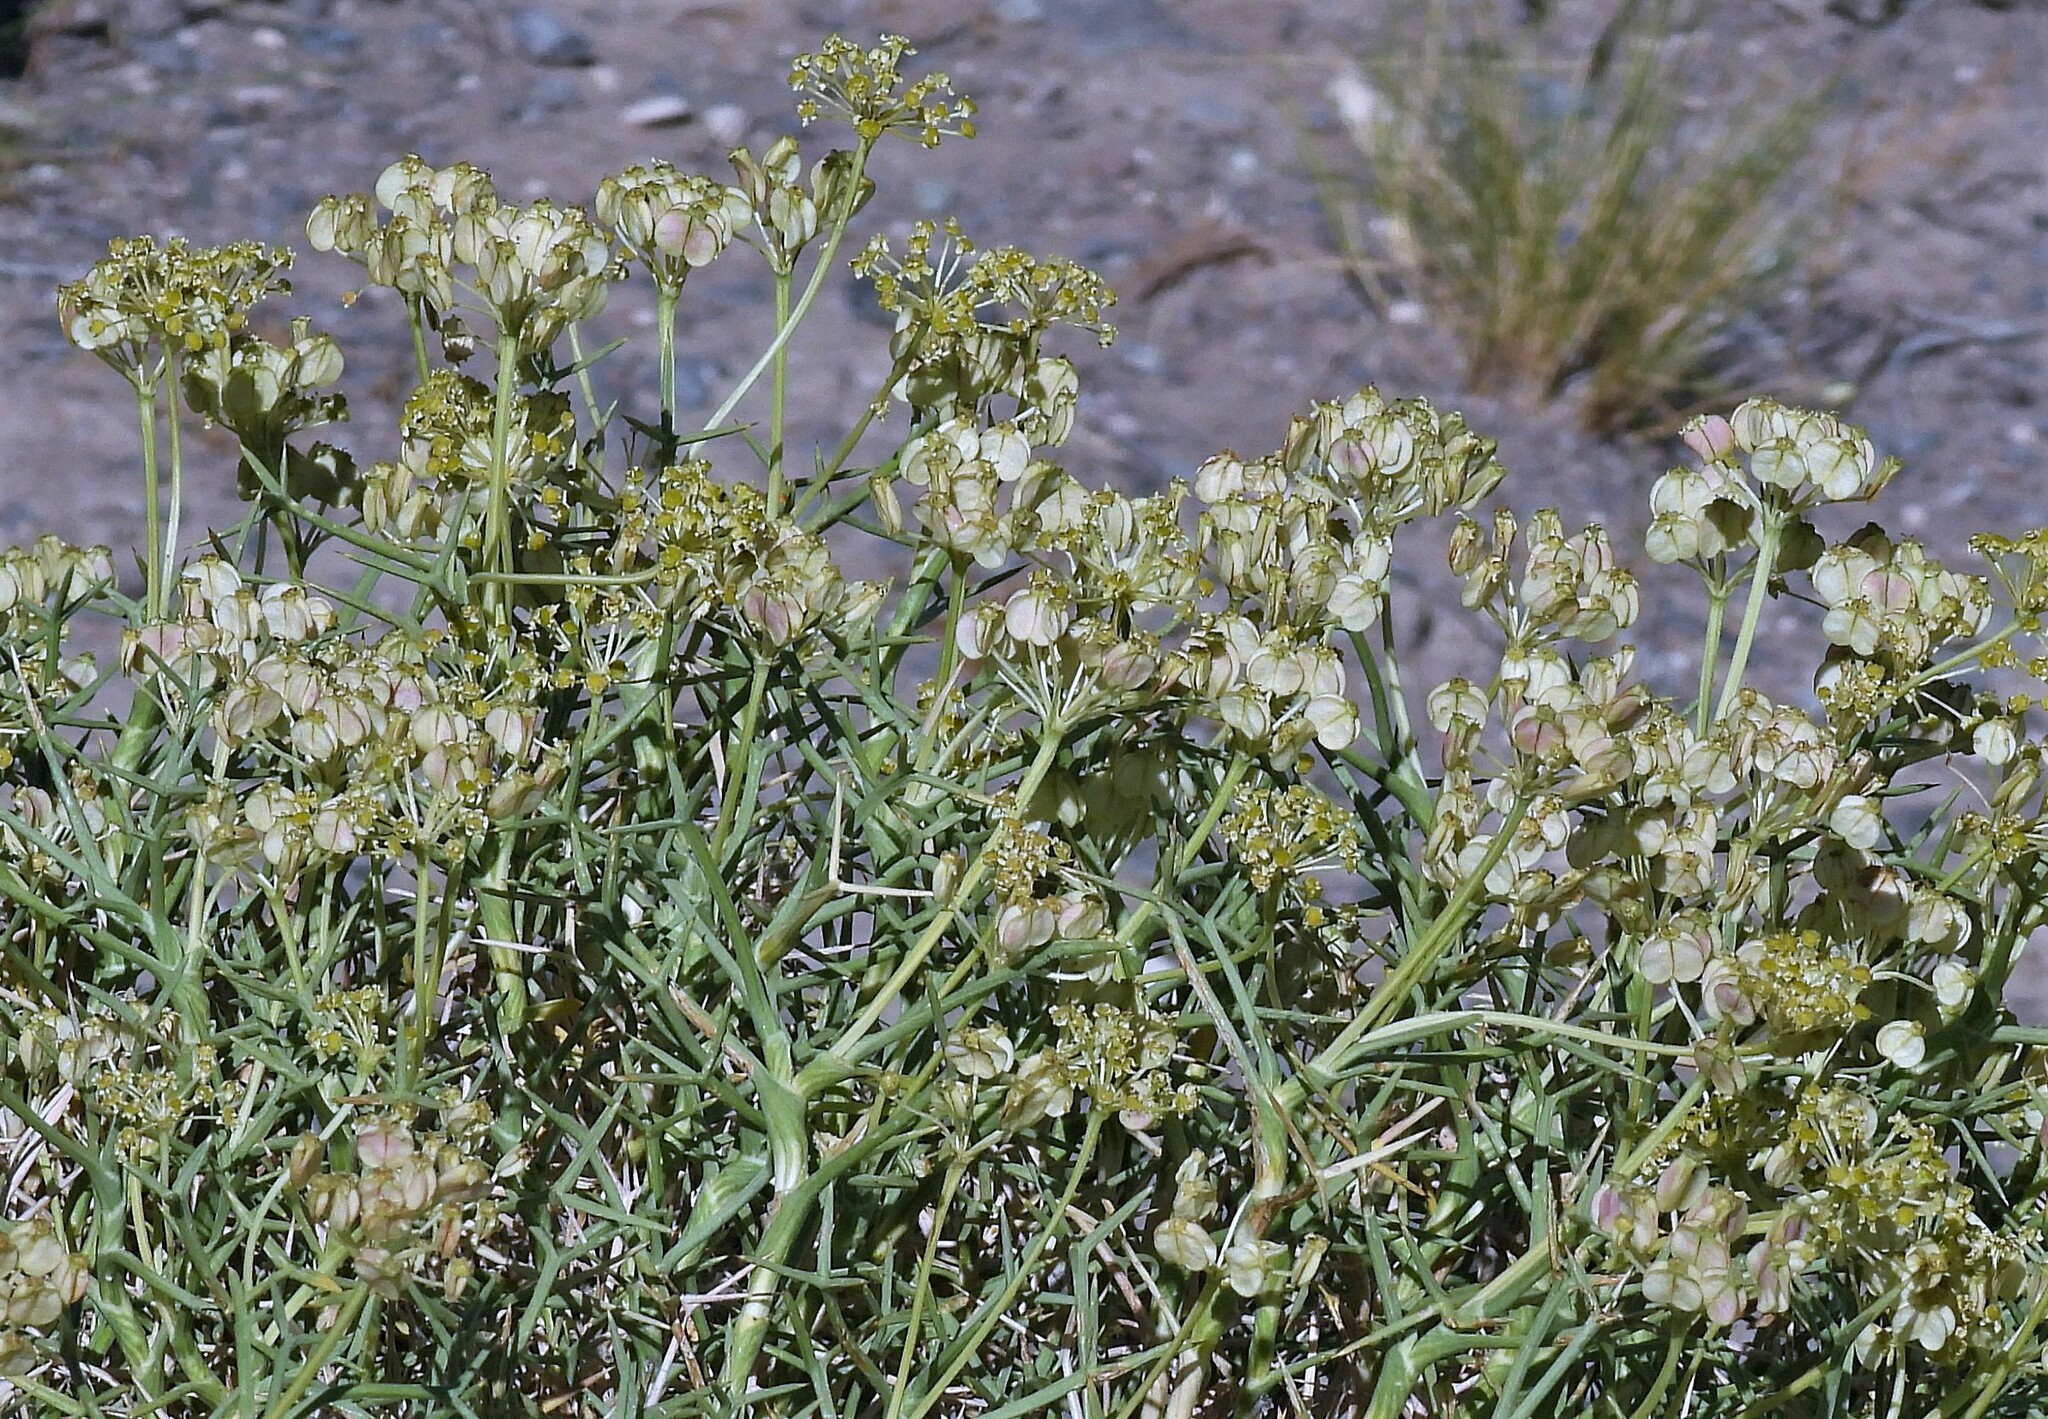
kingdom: Plantae
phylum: Tracheophyta
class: Magnoliopsida
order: Apiales
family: Apiaceae
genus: Azorella
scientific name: Azorella prolifera
